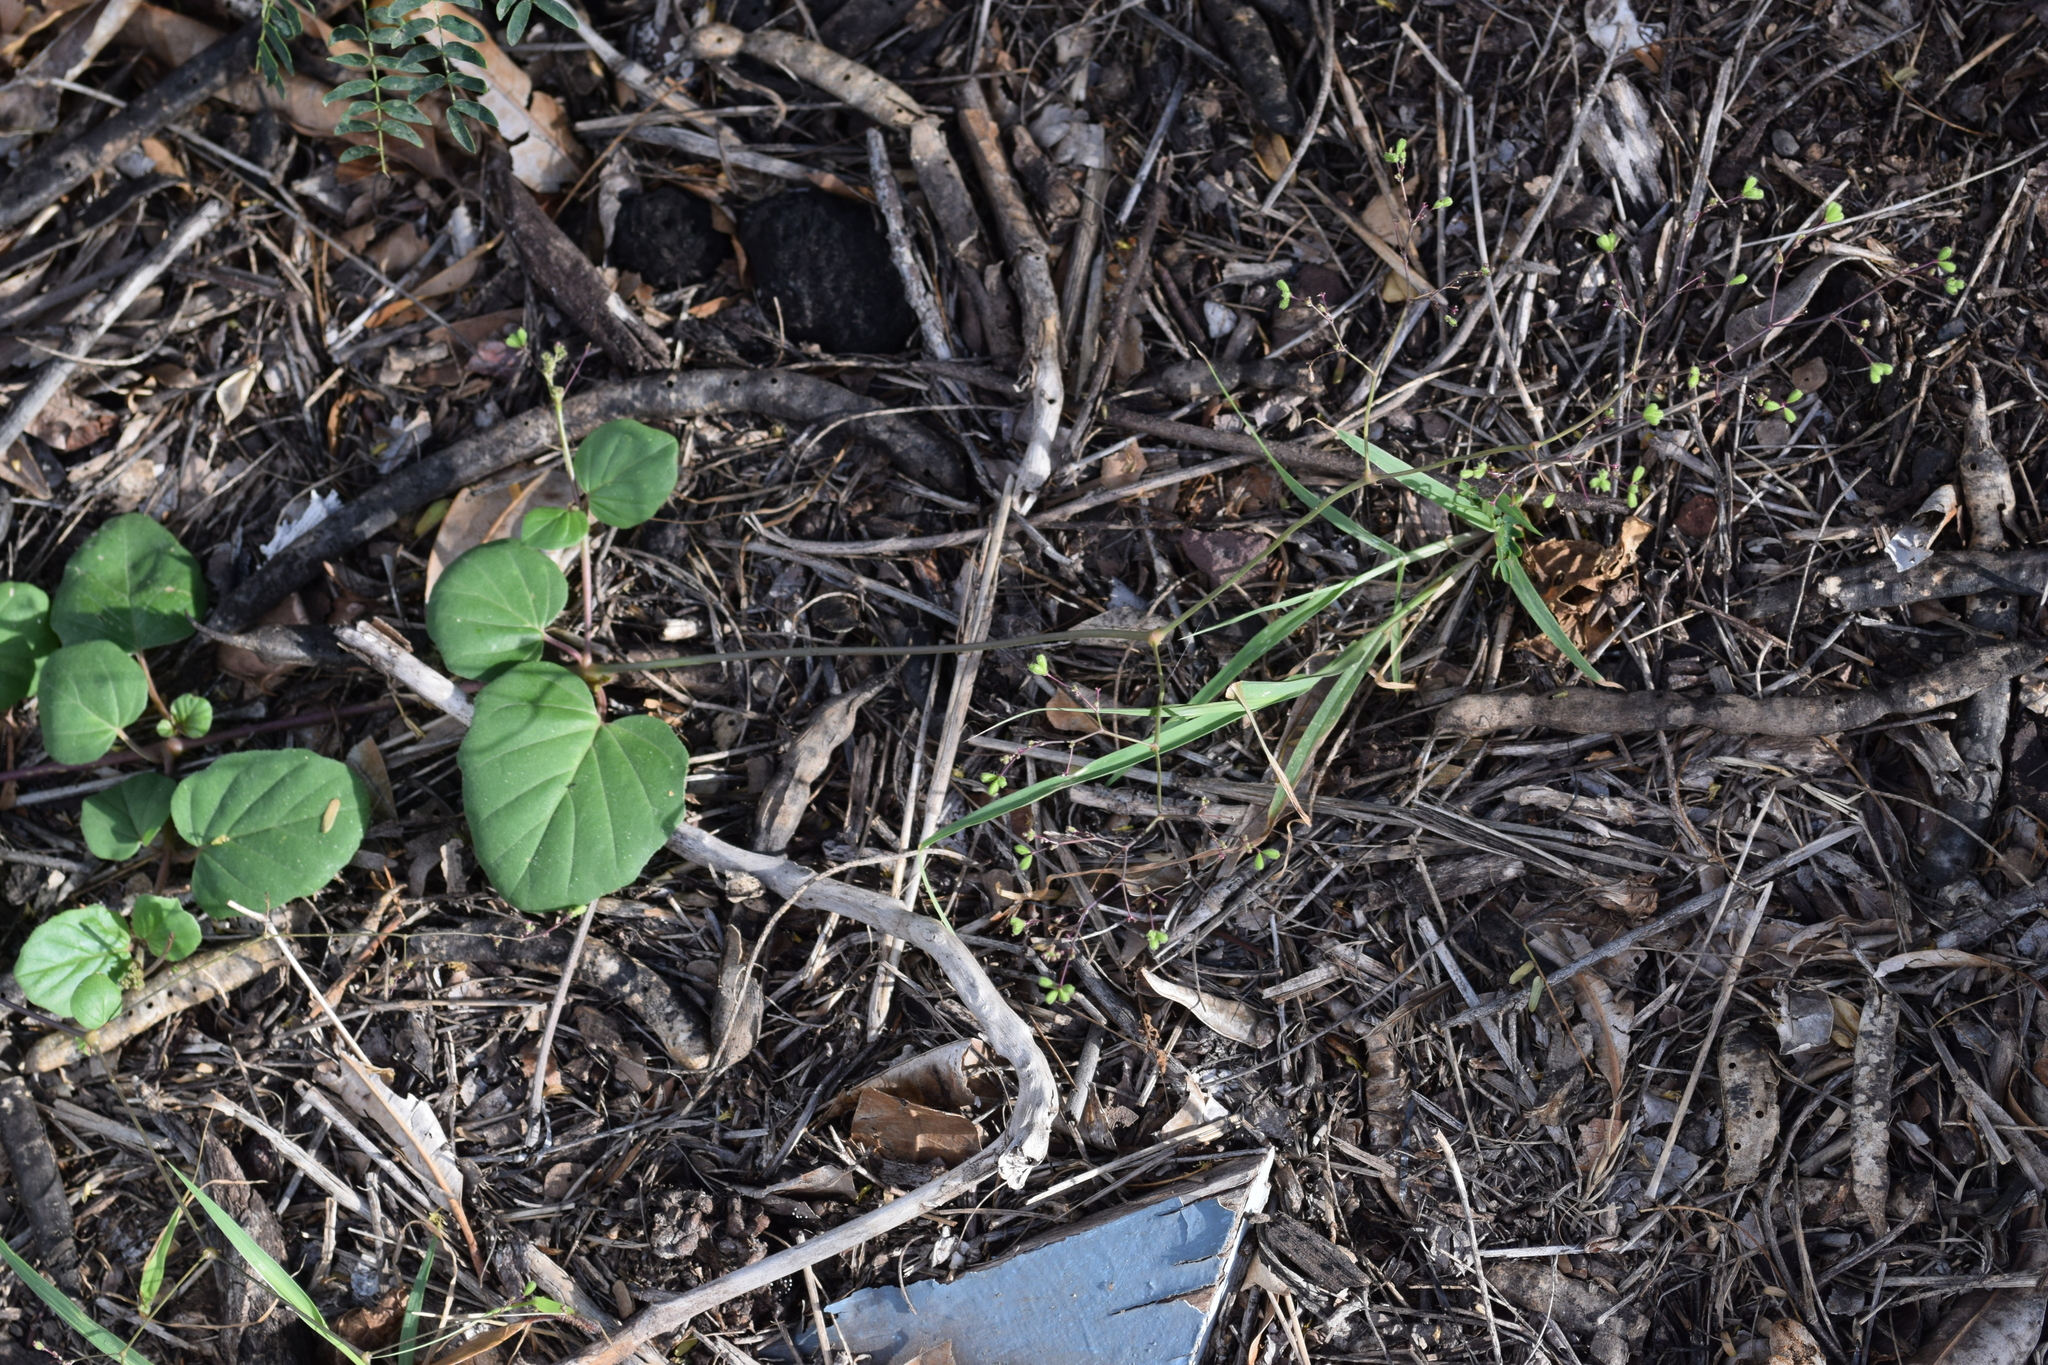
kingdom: Plantae
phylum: Tracheophyta
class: Magnoliopsida
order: Caryophyllales
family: Nyctaginaceae
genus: Boerhavia
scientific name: Boerhavia coccinea
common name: Scarlet spiderling
